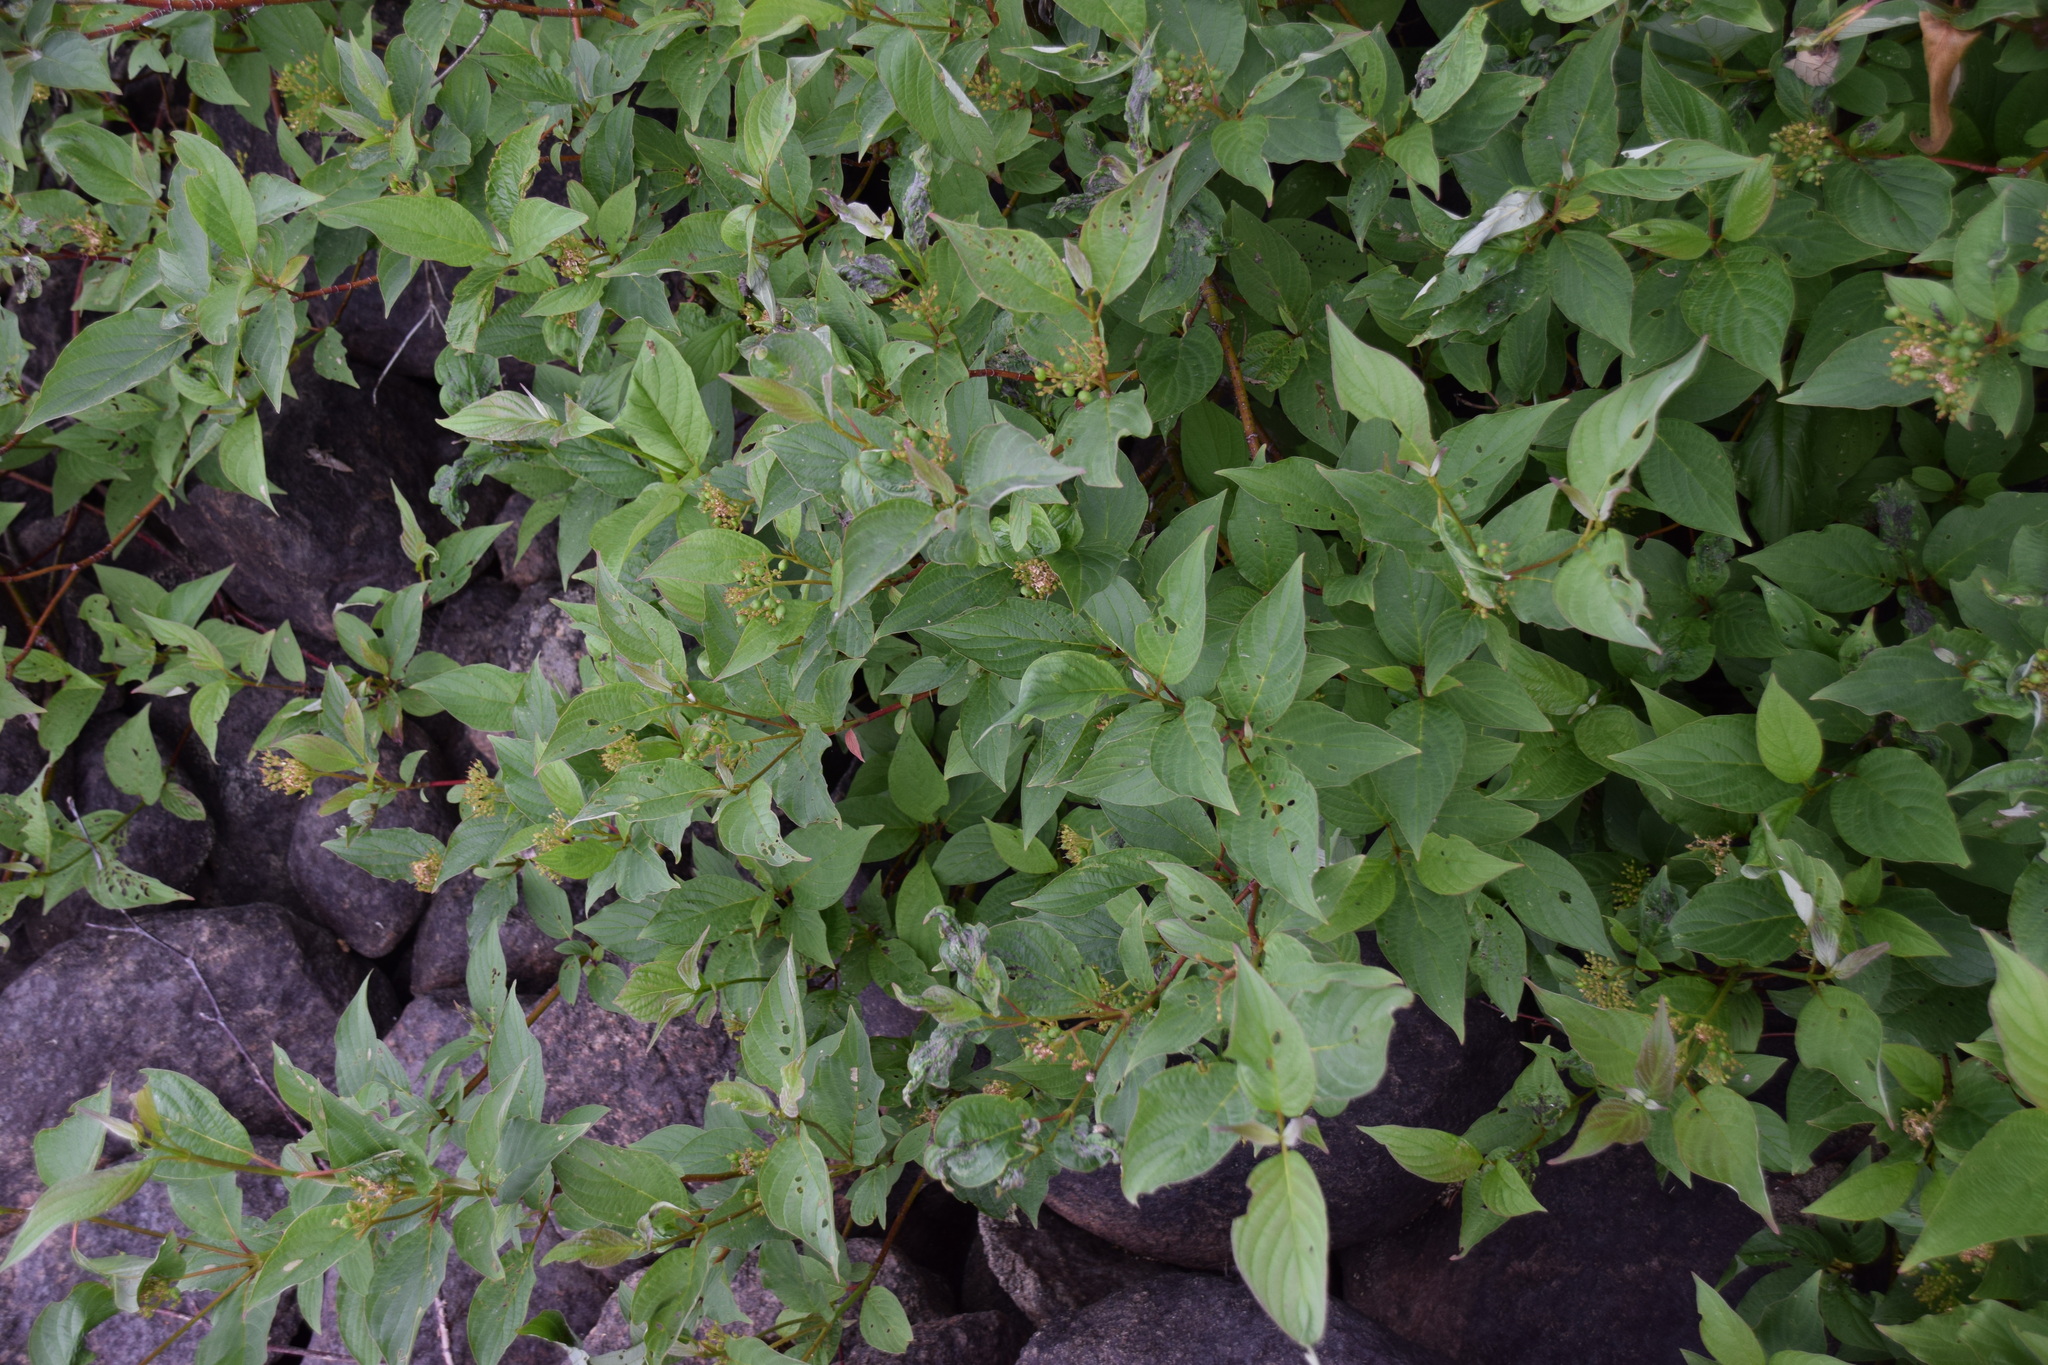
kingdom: Plantae
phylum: Tracheophyta
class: Magnoliopsida
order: Cornales
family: Cornaceae
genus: Cornus
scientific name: Cornus sericea
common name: Red-osier dogwood
